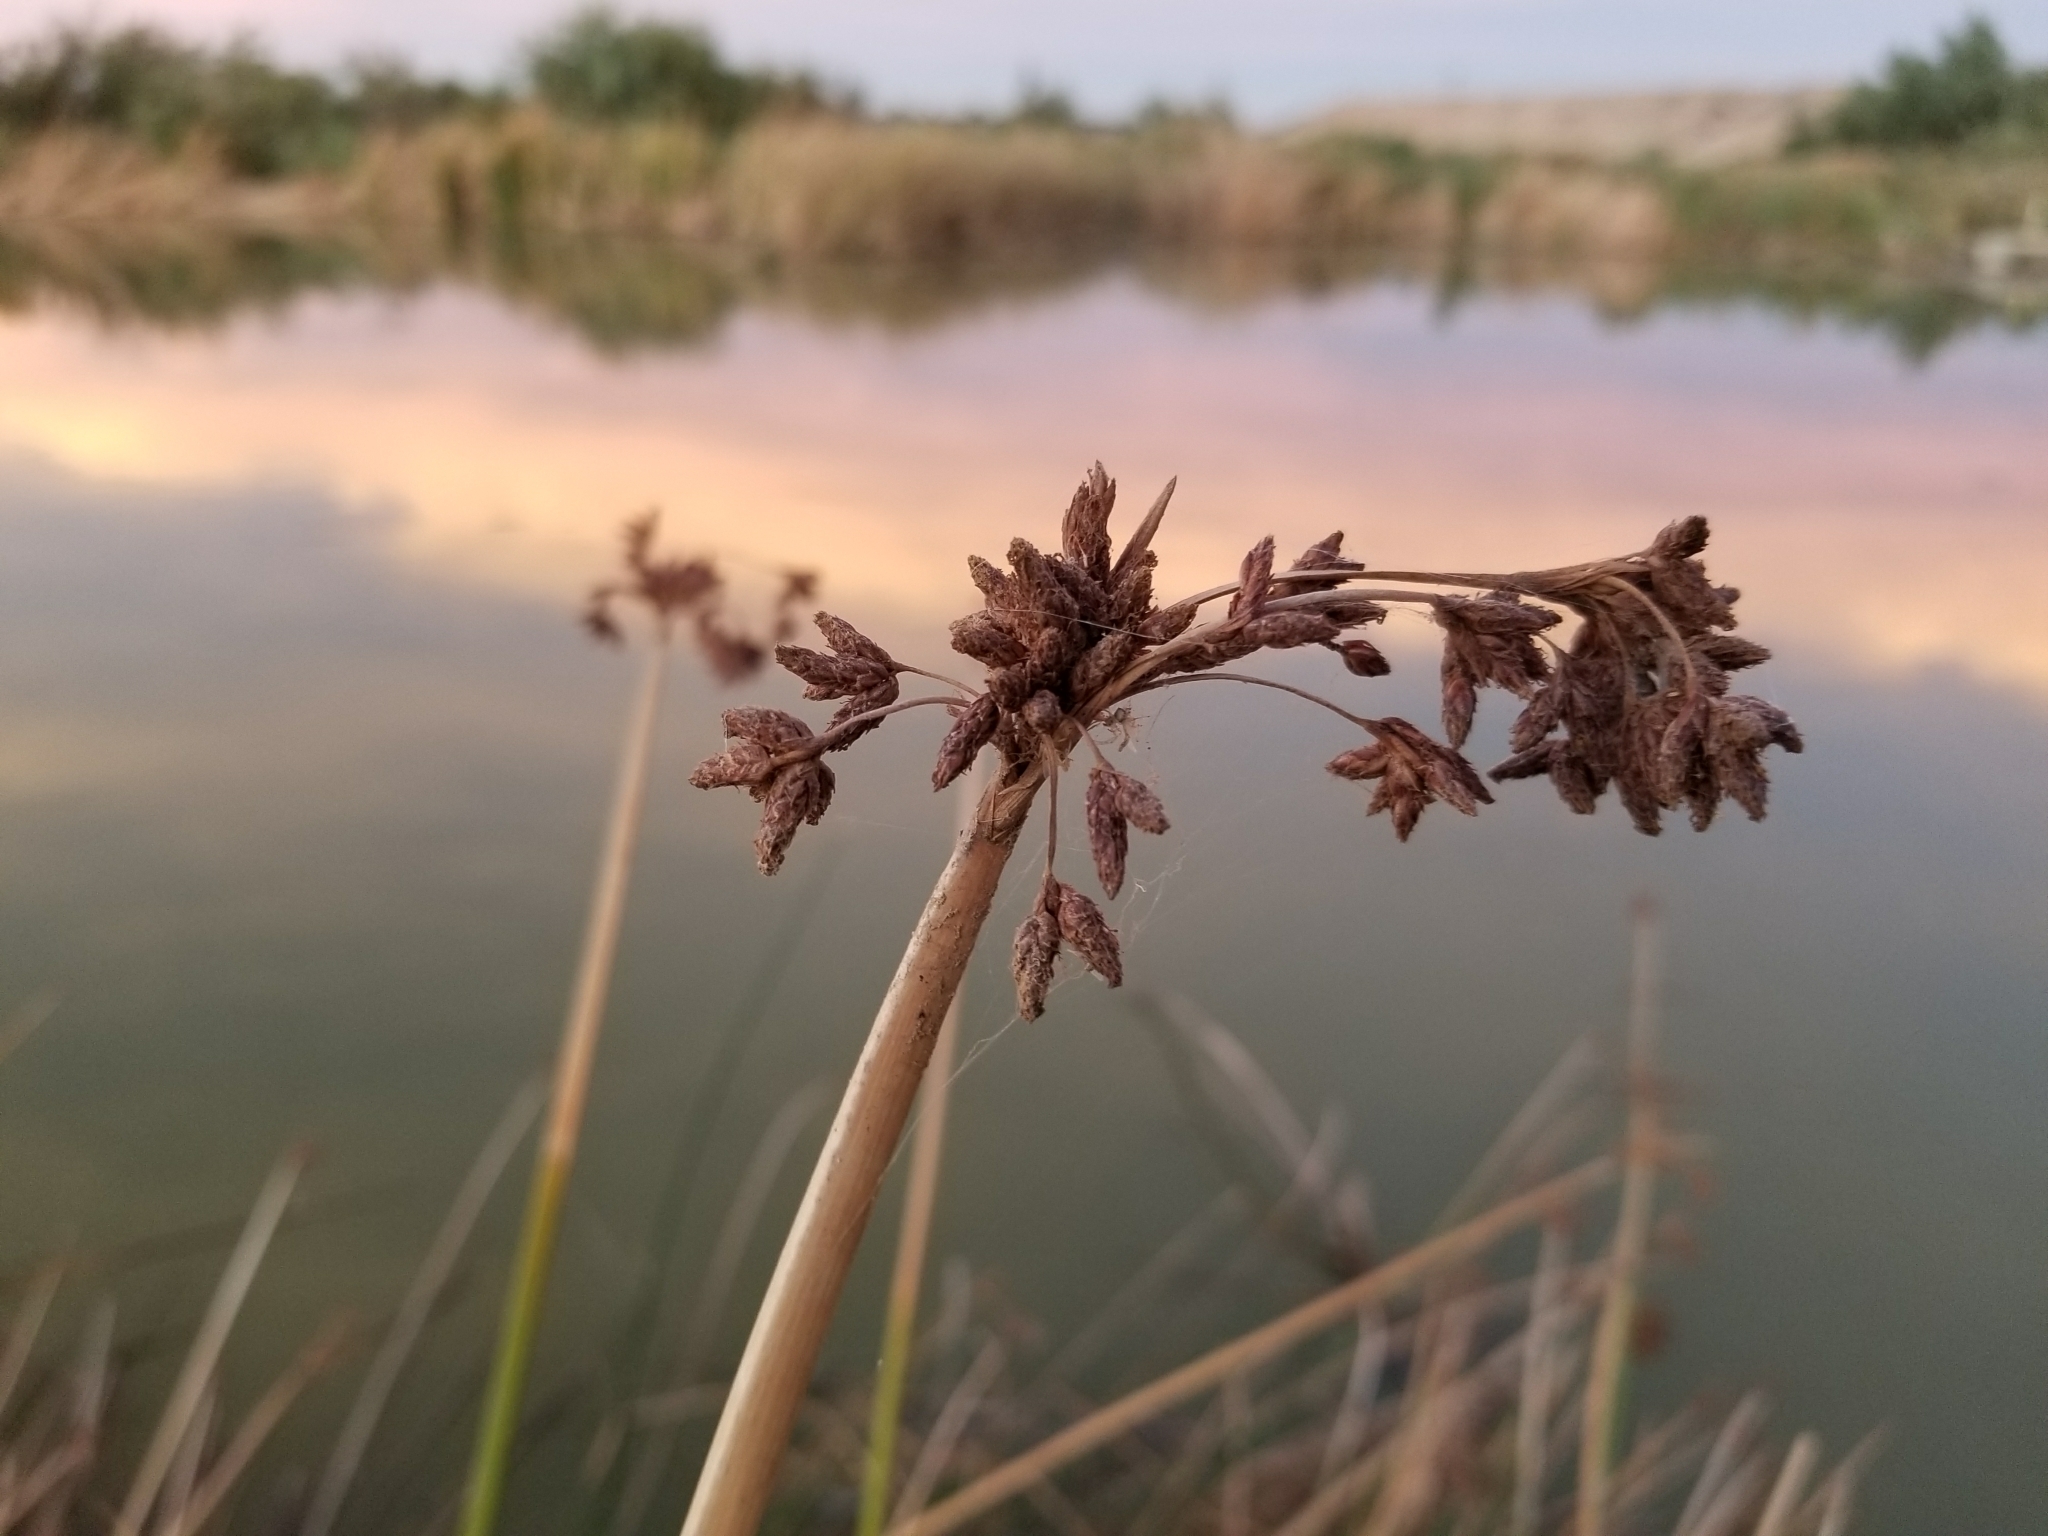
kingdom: Plantae
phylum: Tracheophyta
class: Liliopsida
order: Poales
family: Cyperaceae
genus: Schoenoplectus
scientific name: Schoenoplectus californicus
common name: California bulrush
